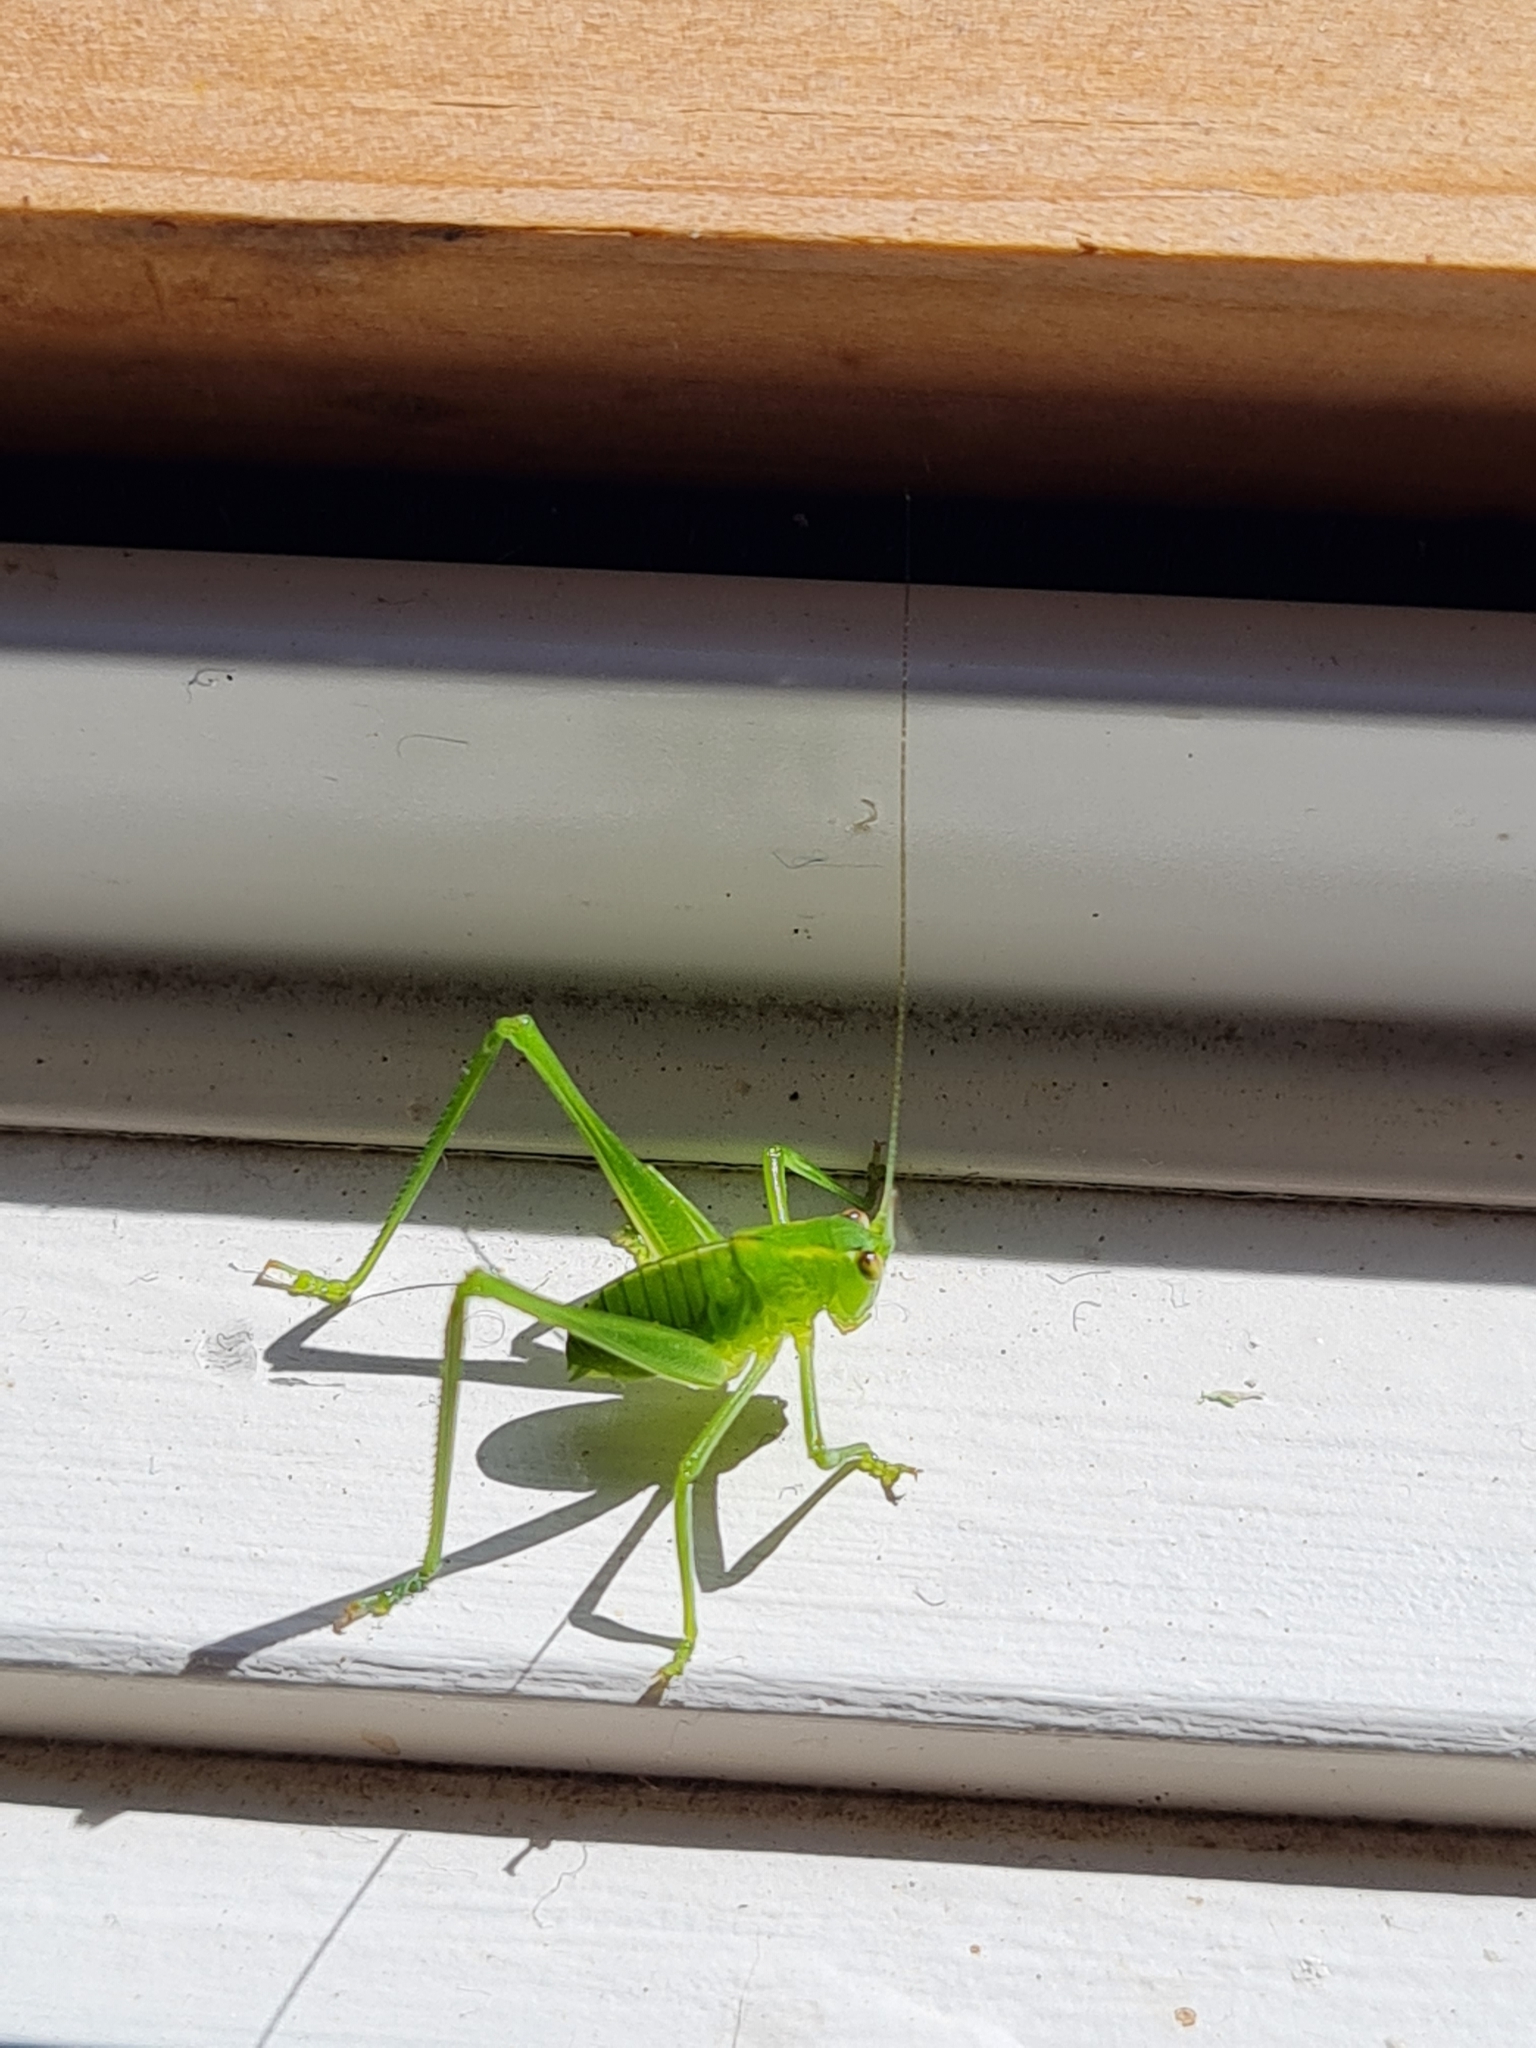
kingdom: Animalia
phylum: Arthropoda
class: Insecta
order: Orthoptera
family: Tettigoniidae
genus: Caedicia
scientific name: Caedicia simplex
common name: Common garden katydid
